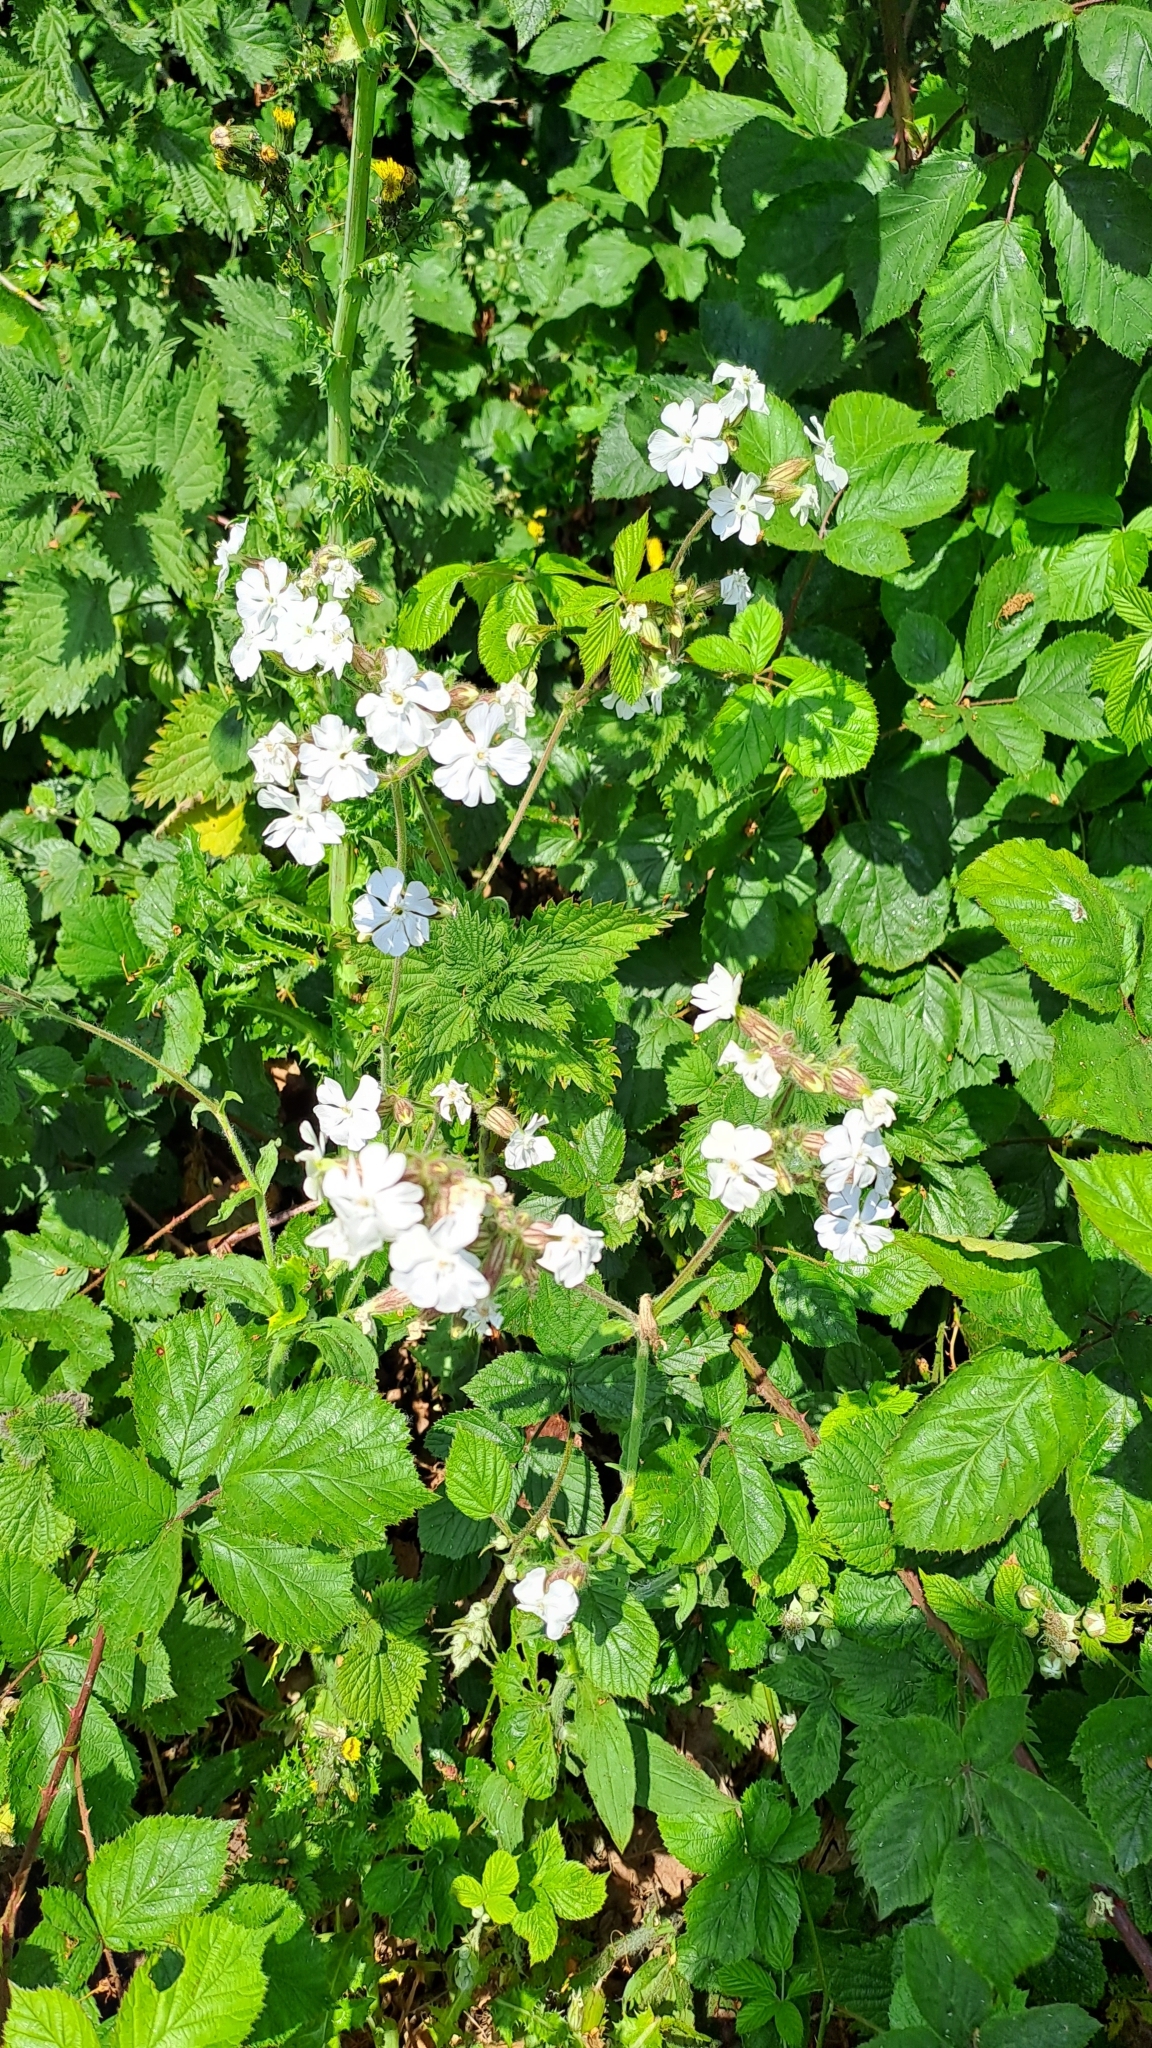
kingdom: Plantae
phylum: Tracheophyta
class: Magnoliopsida
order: Caryophyllales
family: Caryophyllaceae
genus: Silene
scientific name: Silene latifolia
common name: White campion
